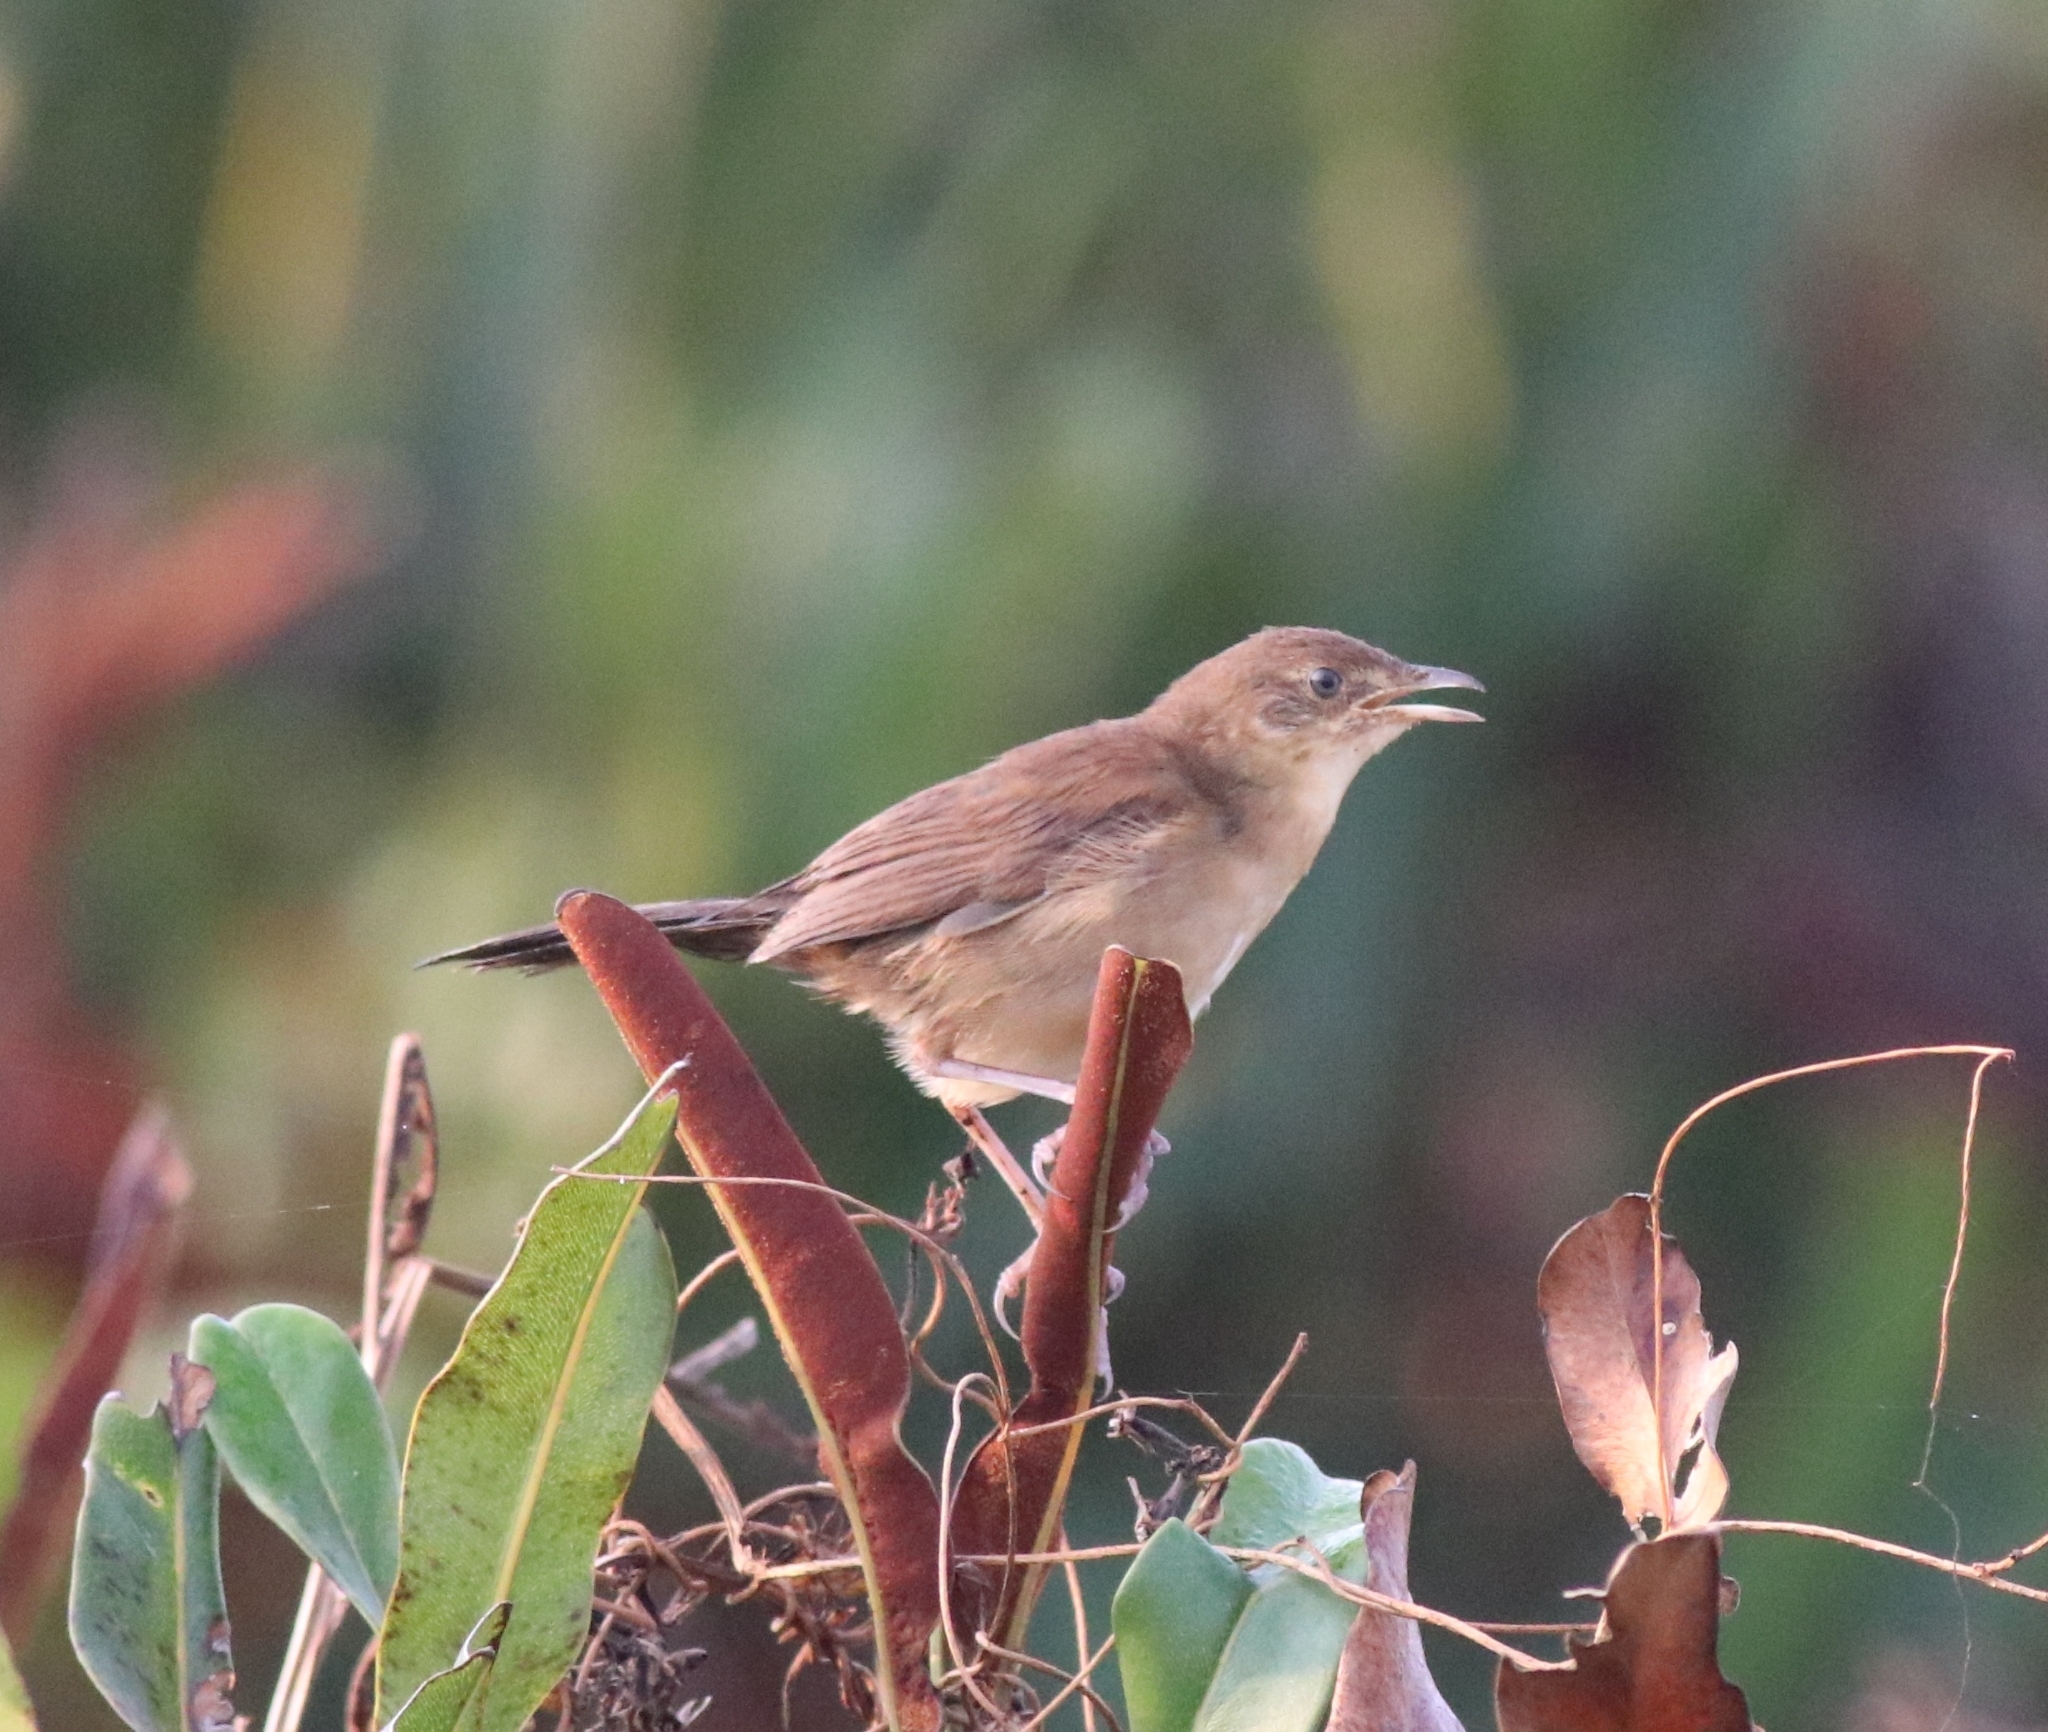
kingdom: Animalia
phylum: Chordata
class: Aves
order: Passeriformes
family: Locustellidae
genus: Schoenicola
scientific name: Schoenicola platyurus
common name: Broad-tailed grassbird
